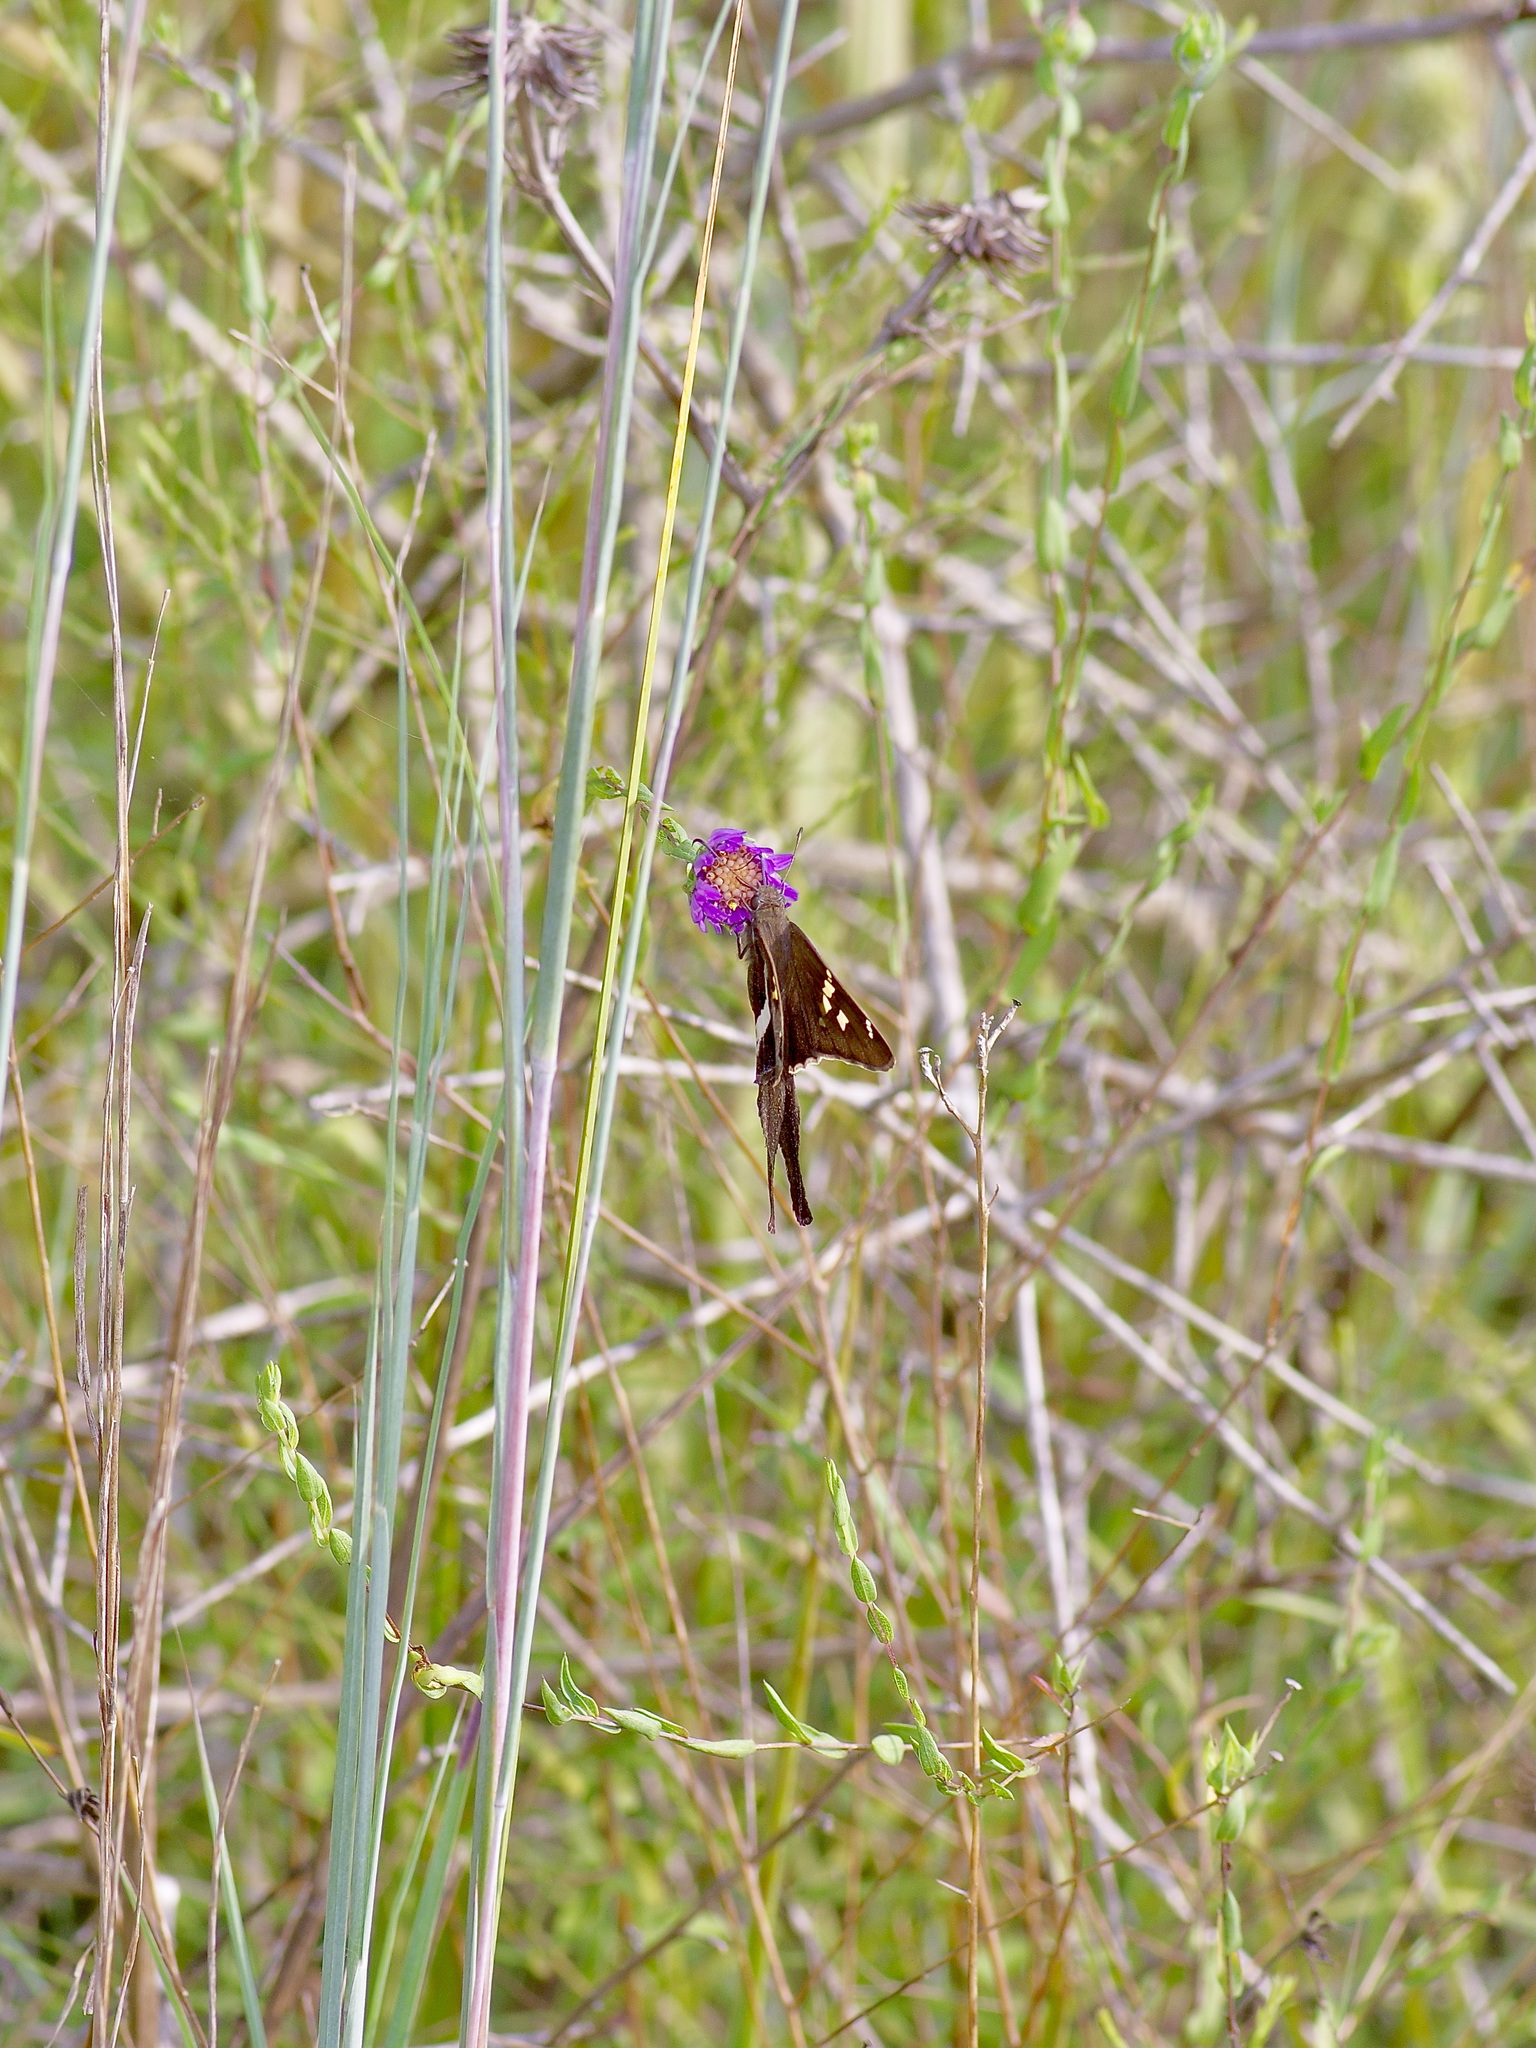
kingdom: Animalia
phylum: Arthropoda
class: Insecta
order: Lepidoptera
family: Hesperiidae
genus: Chioides
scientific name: Chioides catillus
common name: Silverbanded skipper
